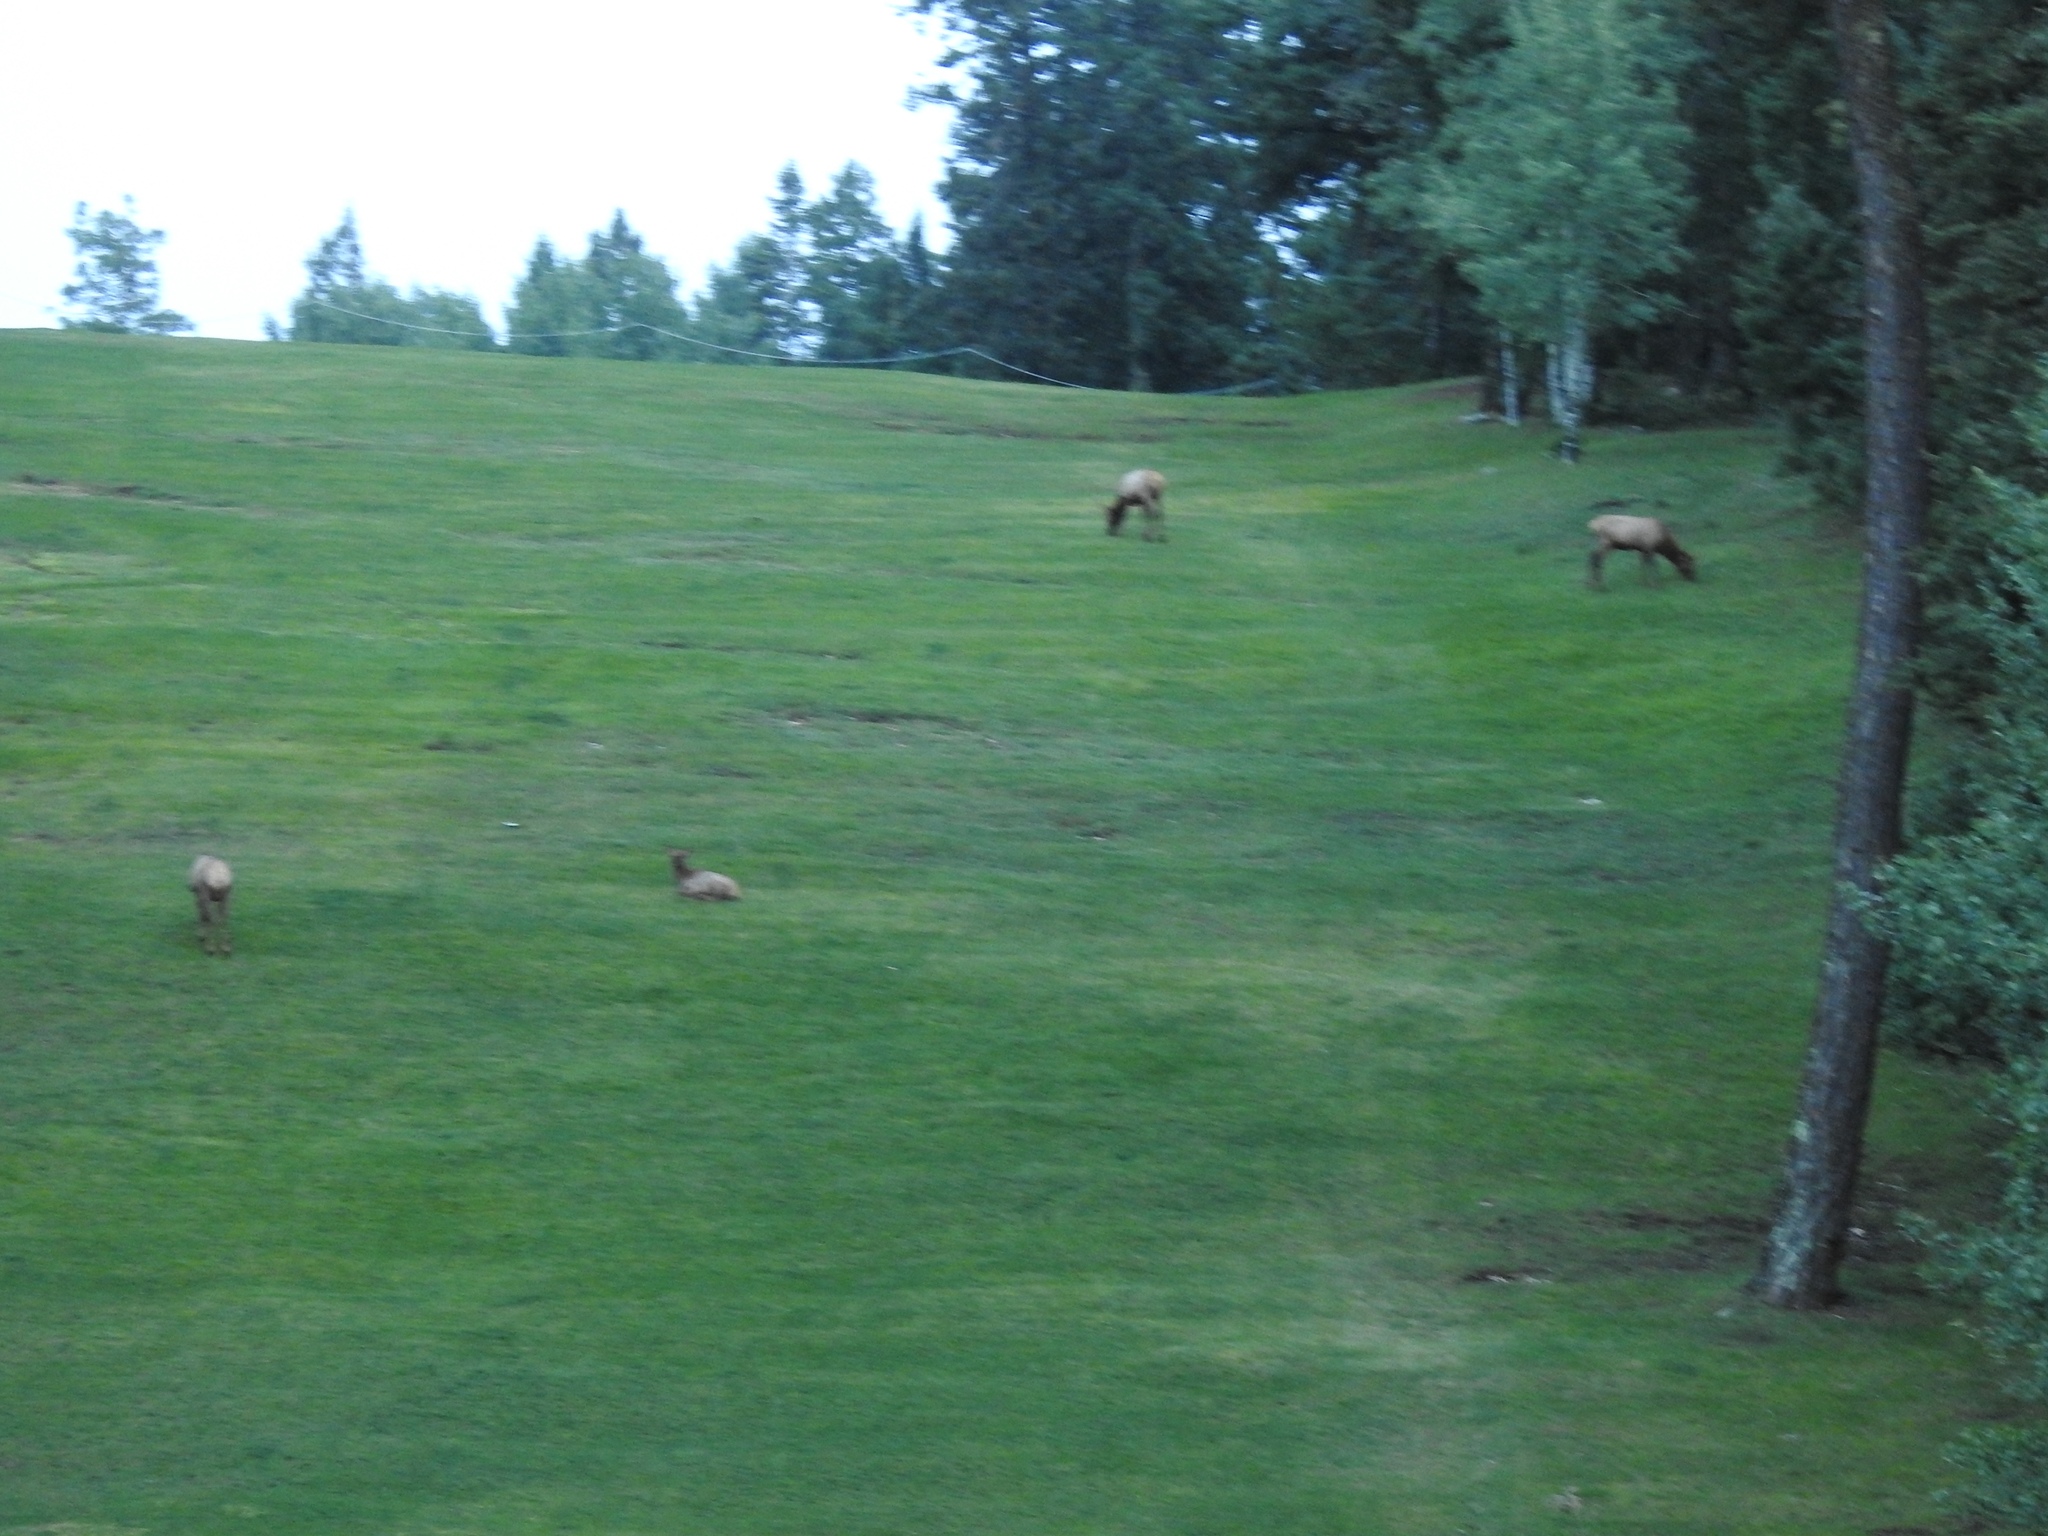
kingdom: Animalia
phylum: Chordata
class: Mammalia
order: Artiodactyla
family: Cervidae
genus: Cervus
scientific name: Cervus elaphus
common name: Red deer
